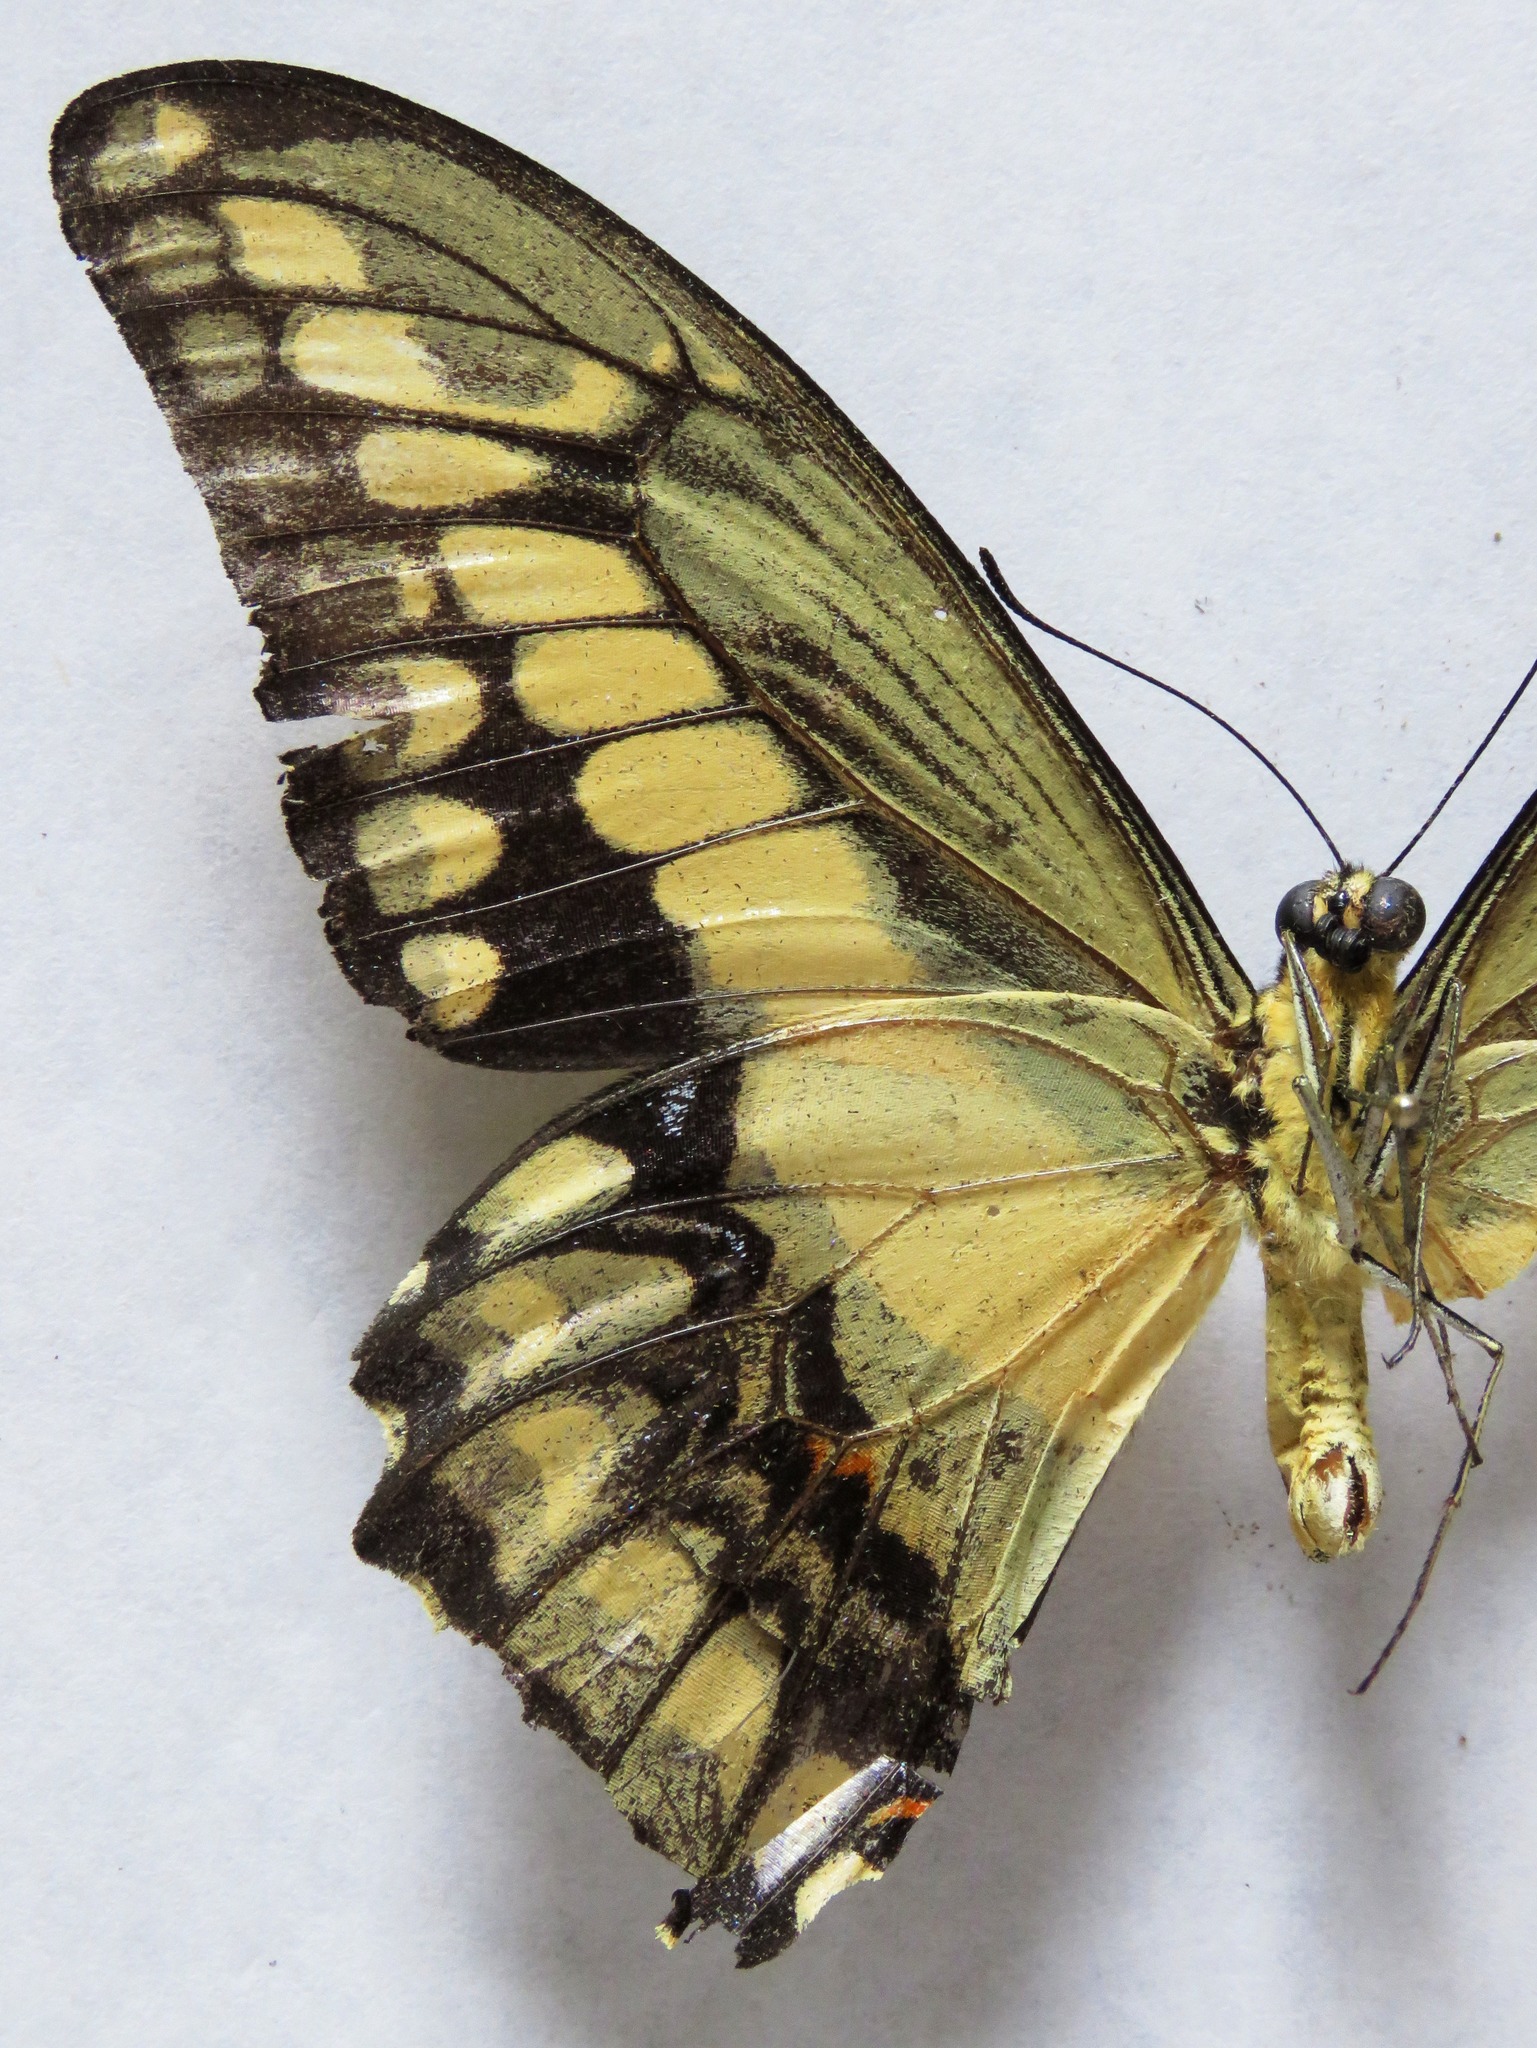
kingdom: Animalia
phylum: Arthropoda
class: Insecta
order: Lepidoptera
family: Papilionidae
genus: Papilio
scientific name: Papilio thoas
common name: King swallowtail
